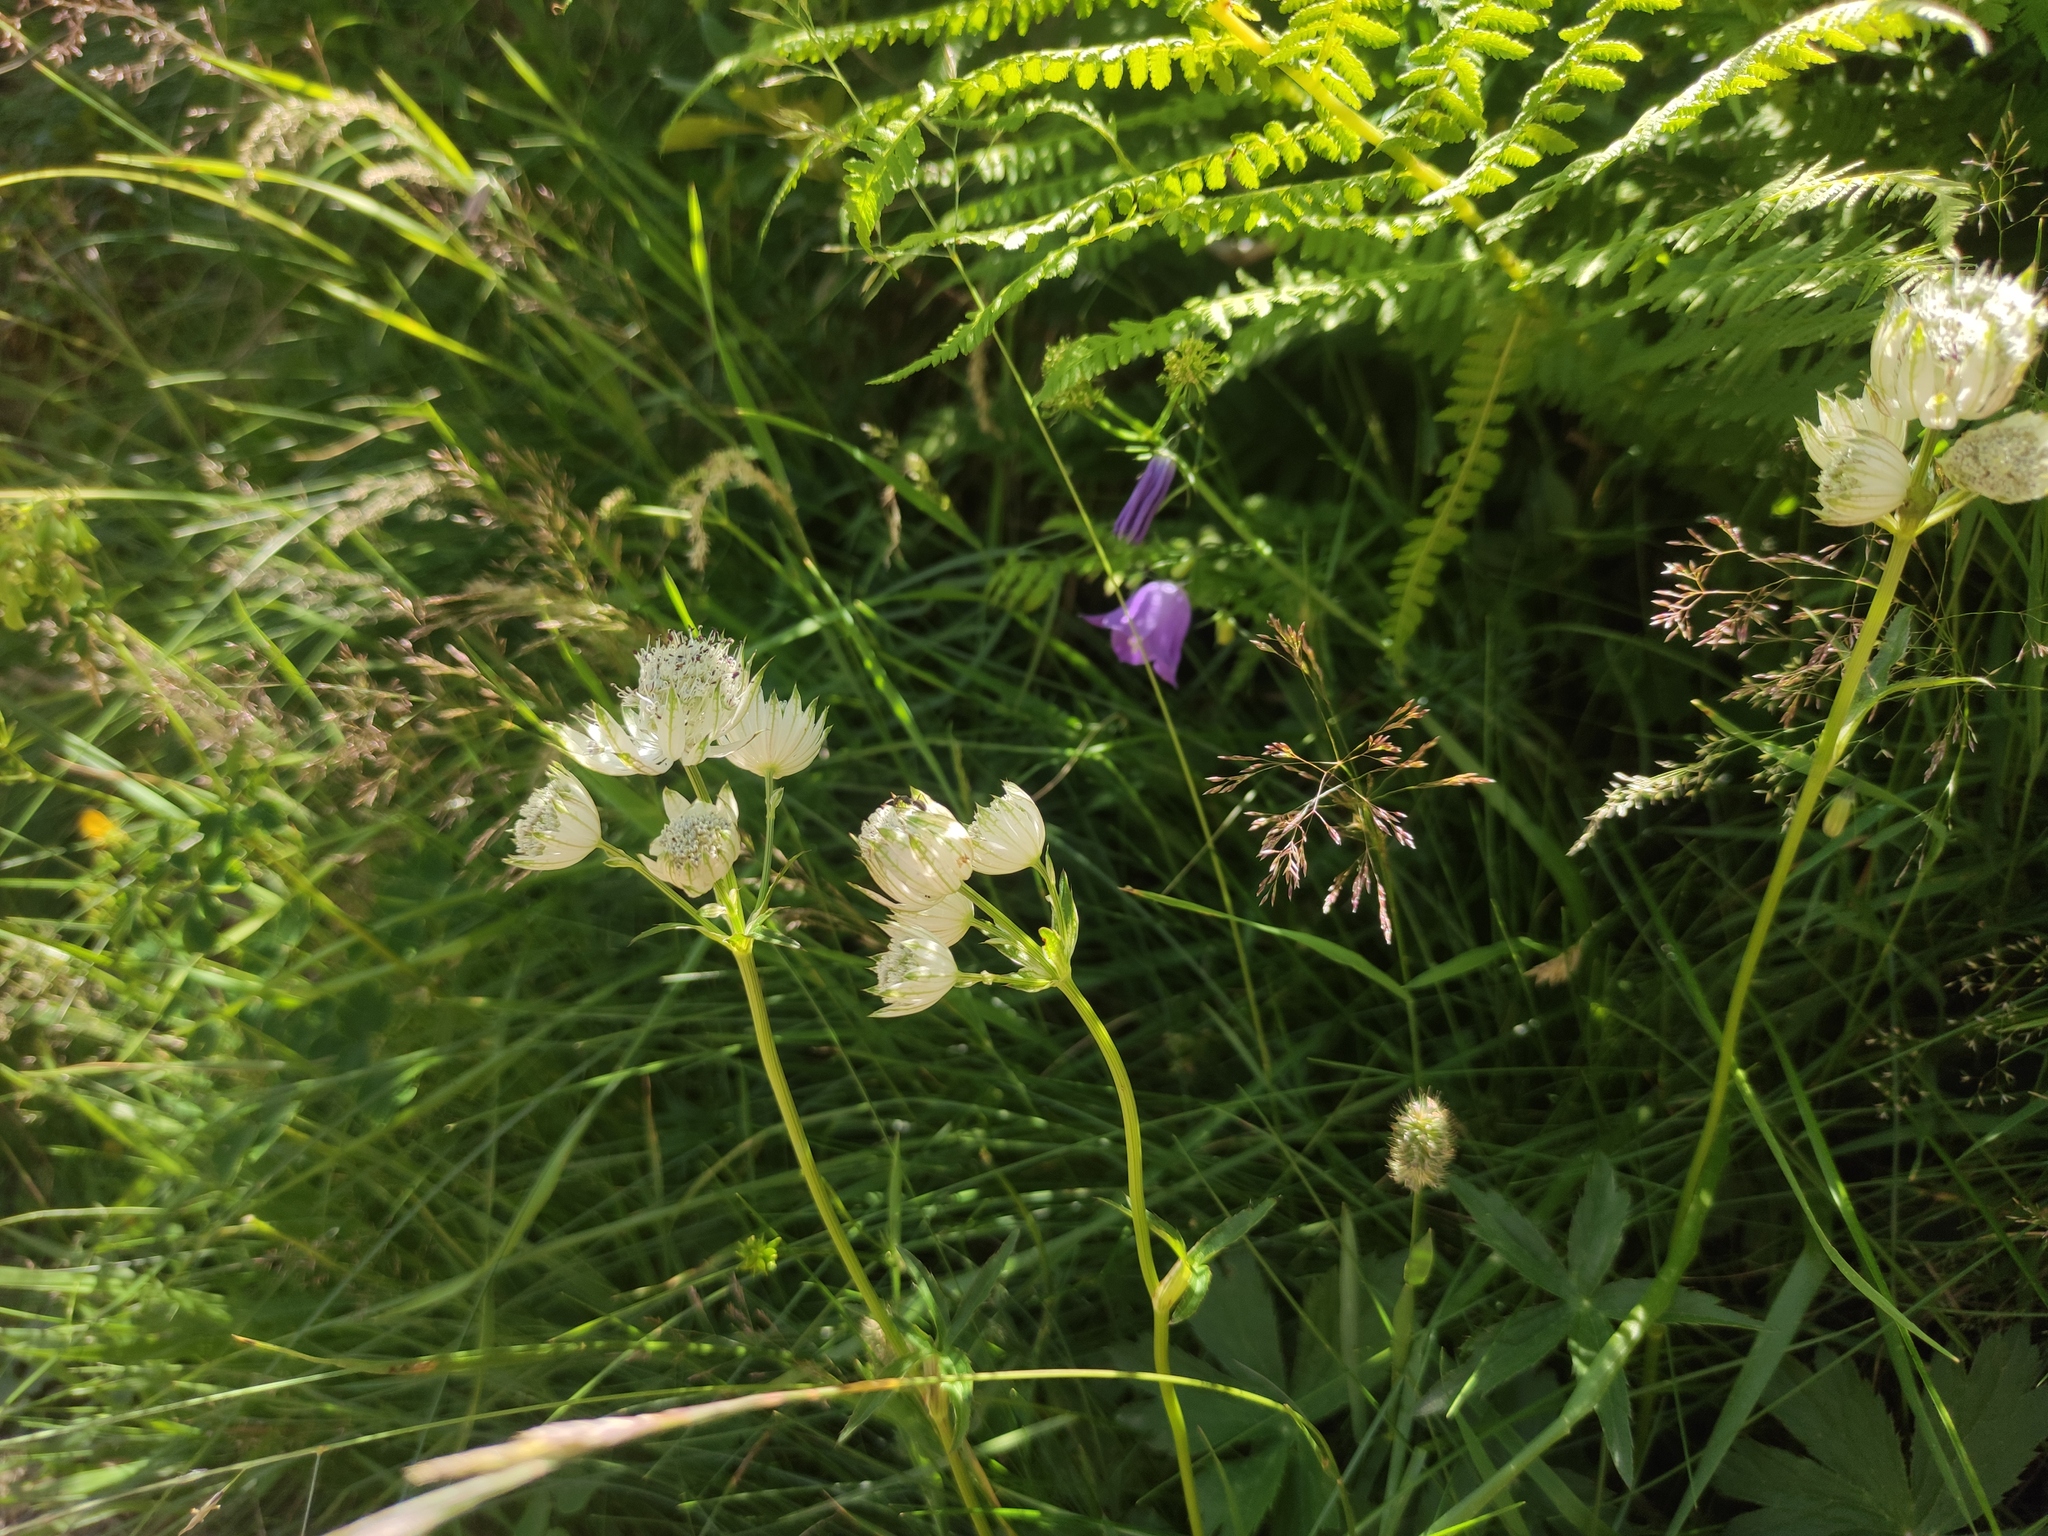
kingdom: Plantae
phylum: Tracheophyta
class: Magnoliopsida
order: Apiales
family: Apiaceae
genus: Astrantia
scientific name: Astrantia major
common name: Greater masterwort
